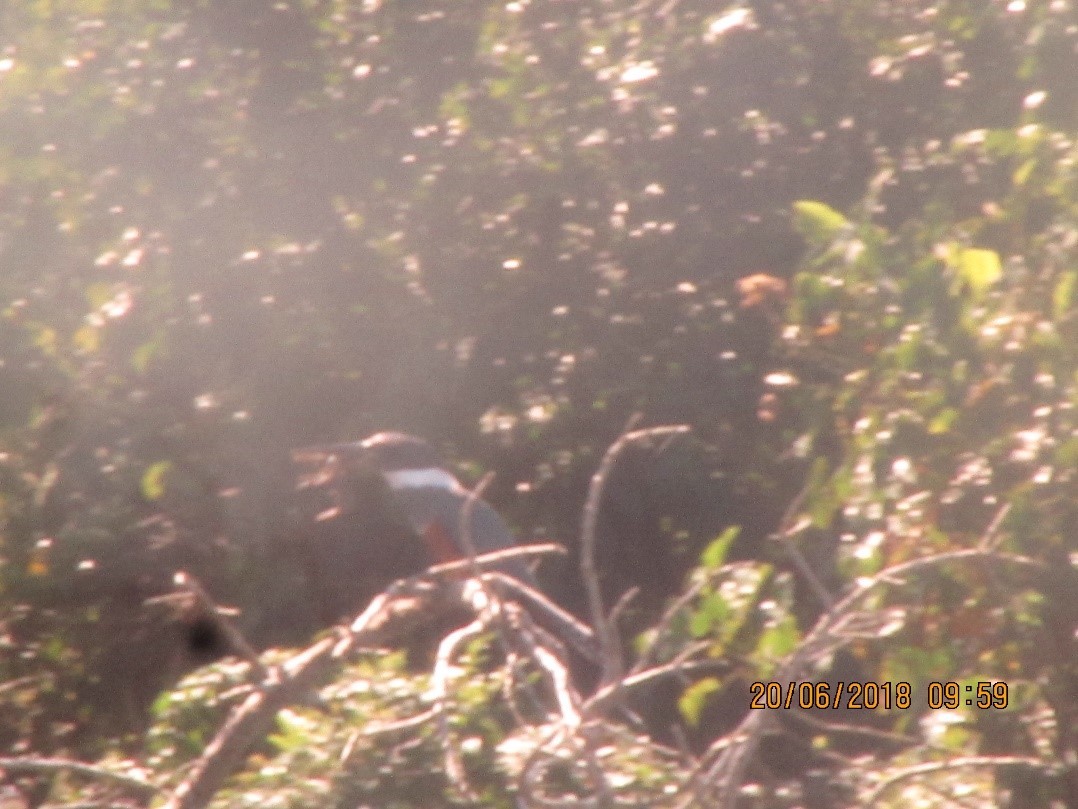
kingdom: Animalia
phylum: Chordata
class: Aves
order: Coraciiformes
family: Alcedinidae
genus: Megaceryle
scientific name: Megaceryle torquata
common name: Ringed kingfisher
